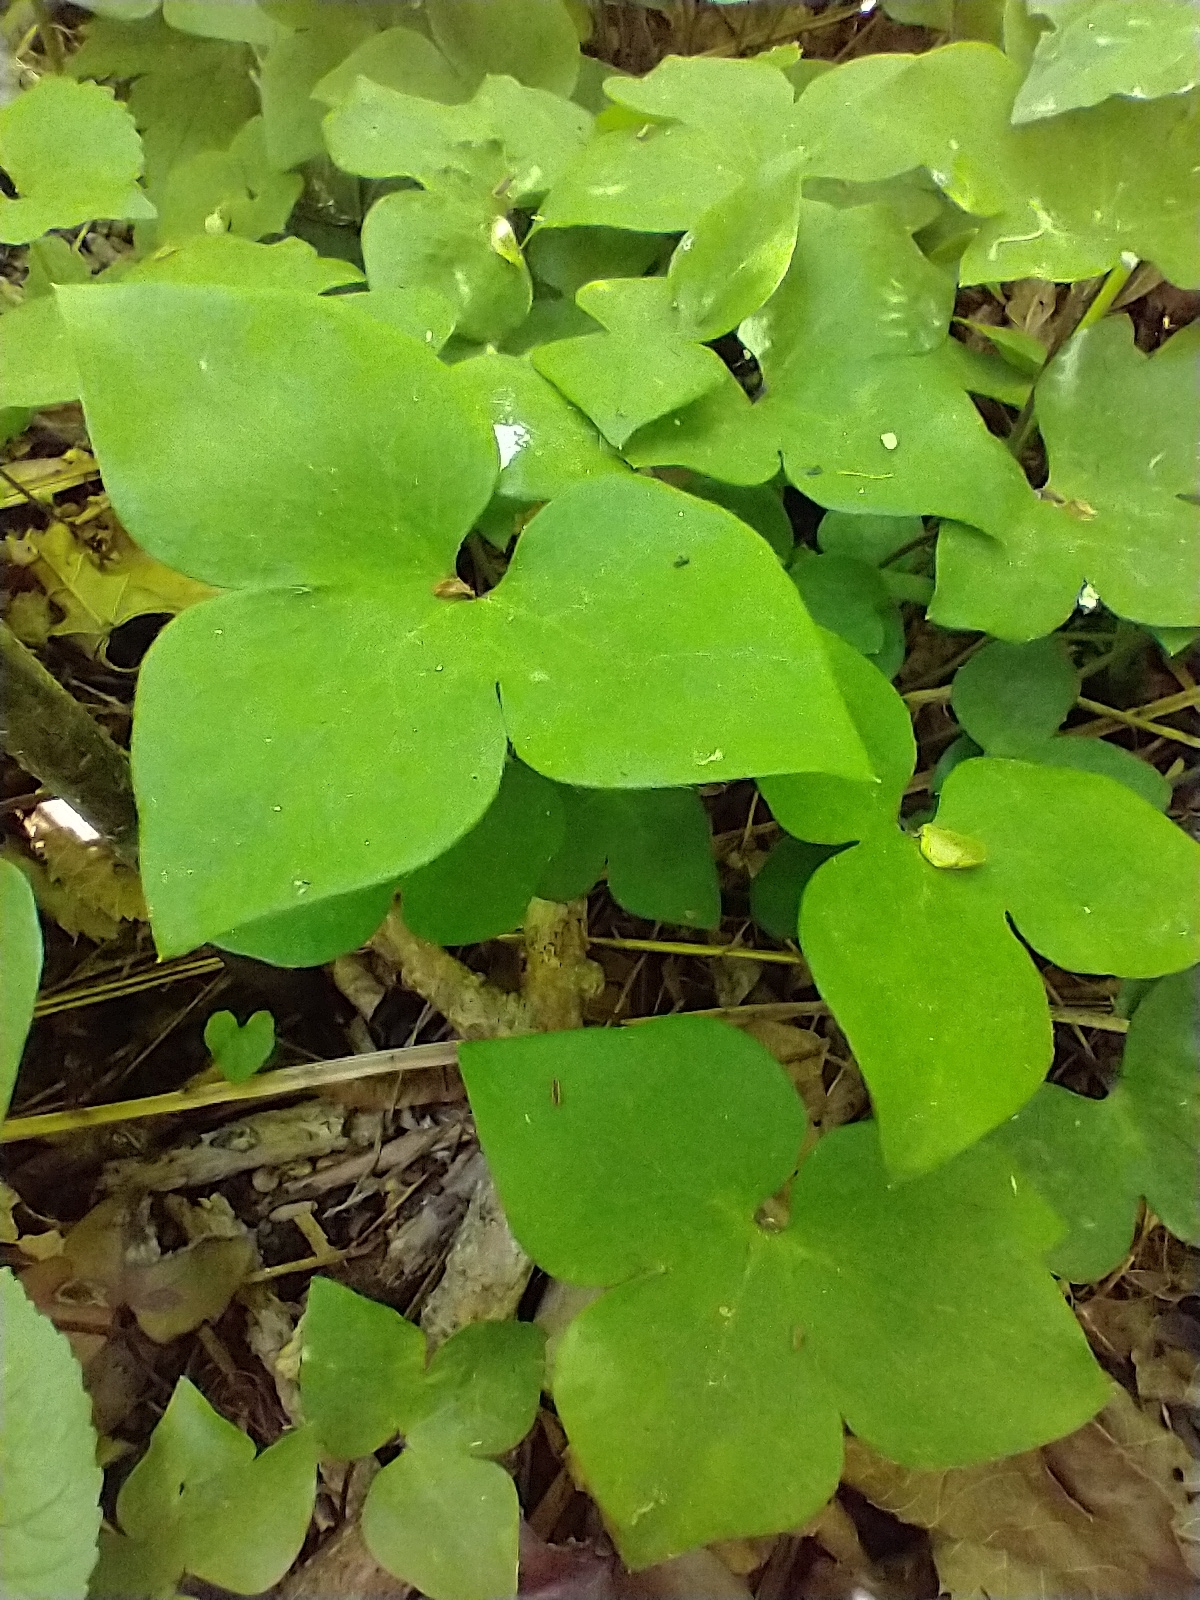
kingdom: Plantae
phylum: Tracheophyta
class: Magnoliopsida
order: Ranunculales
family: Ranunculaceae
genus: Hepatica
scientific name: Hepatica acutiloba
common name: Sharp-lobed hepatica
